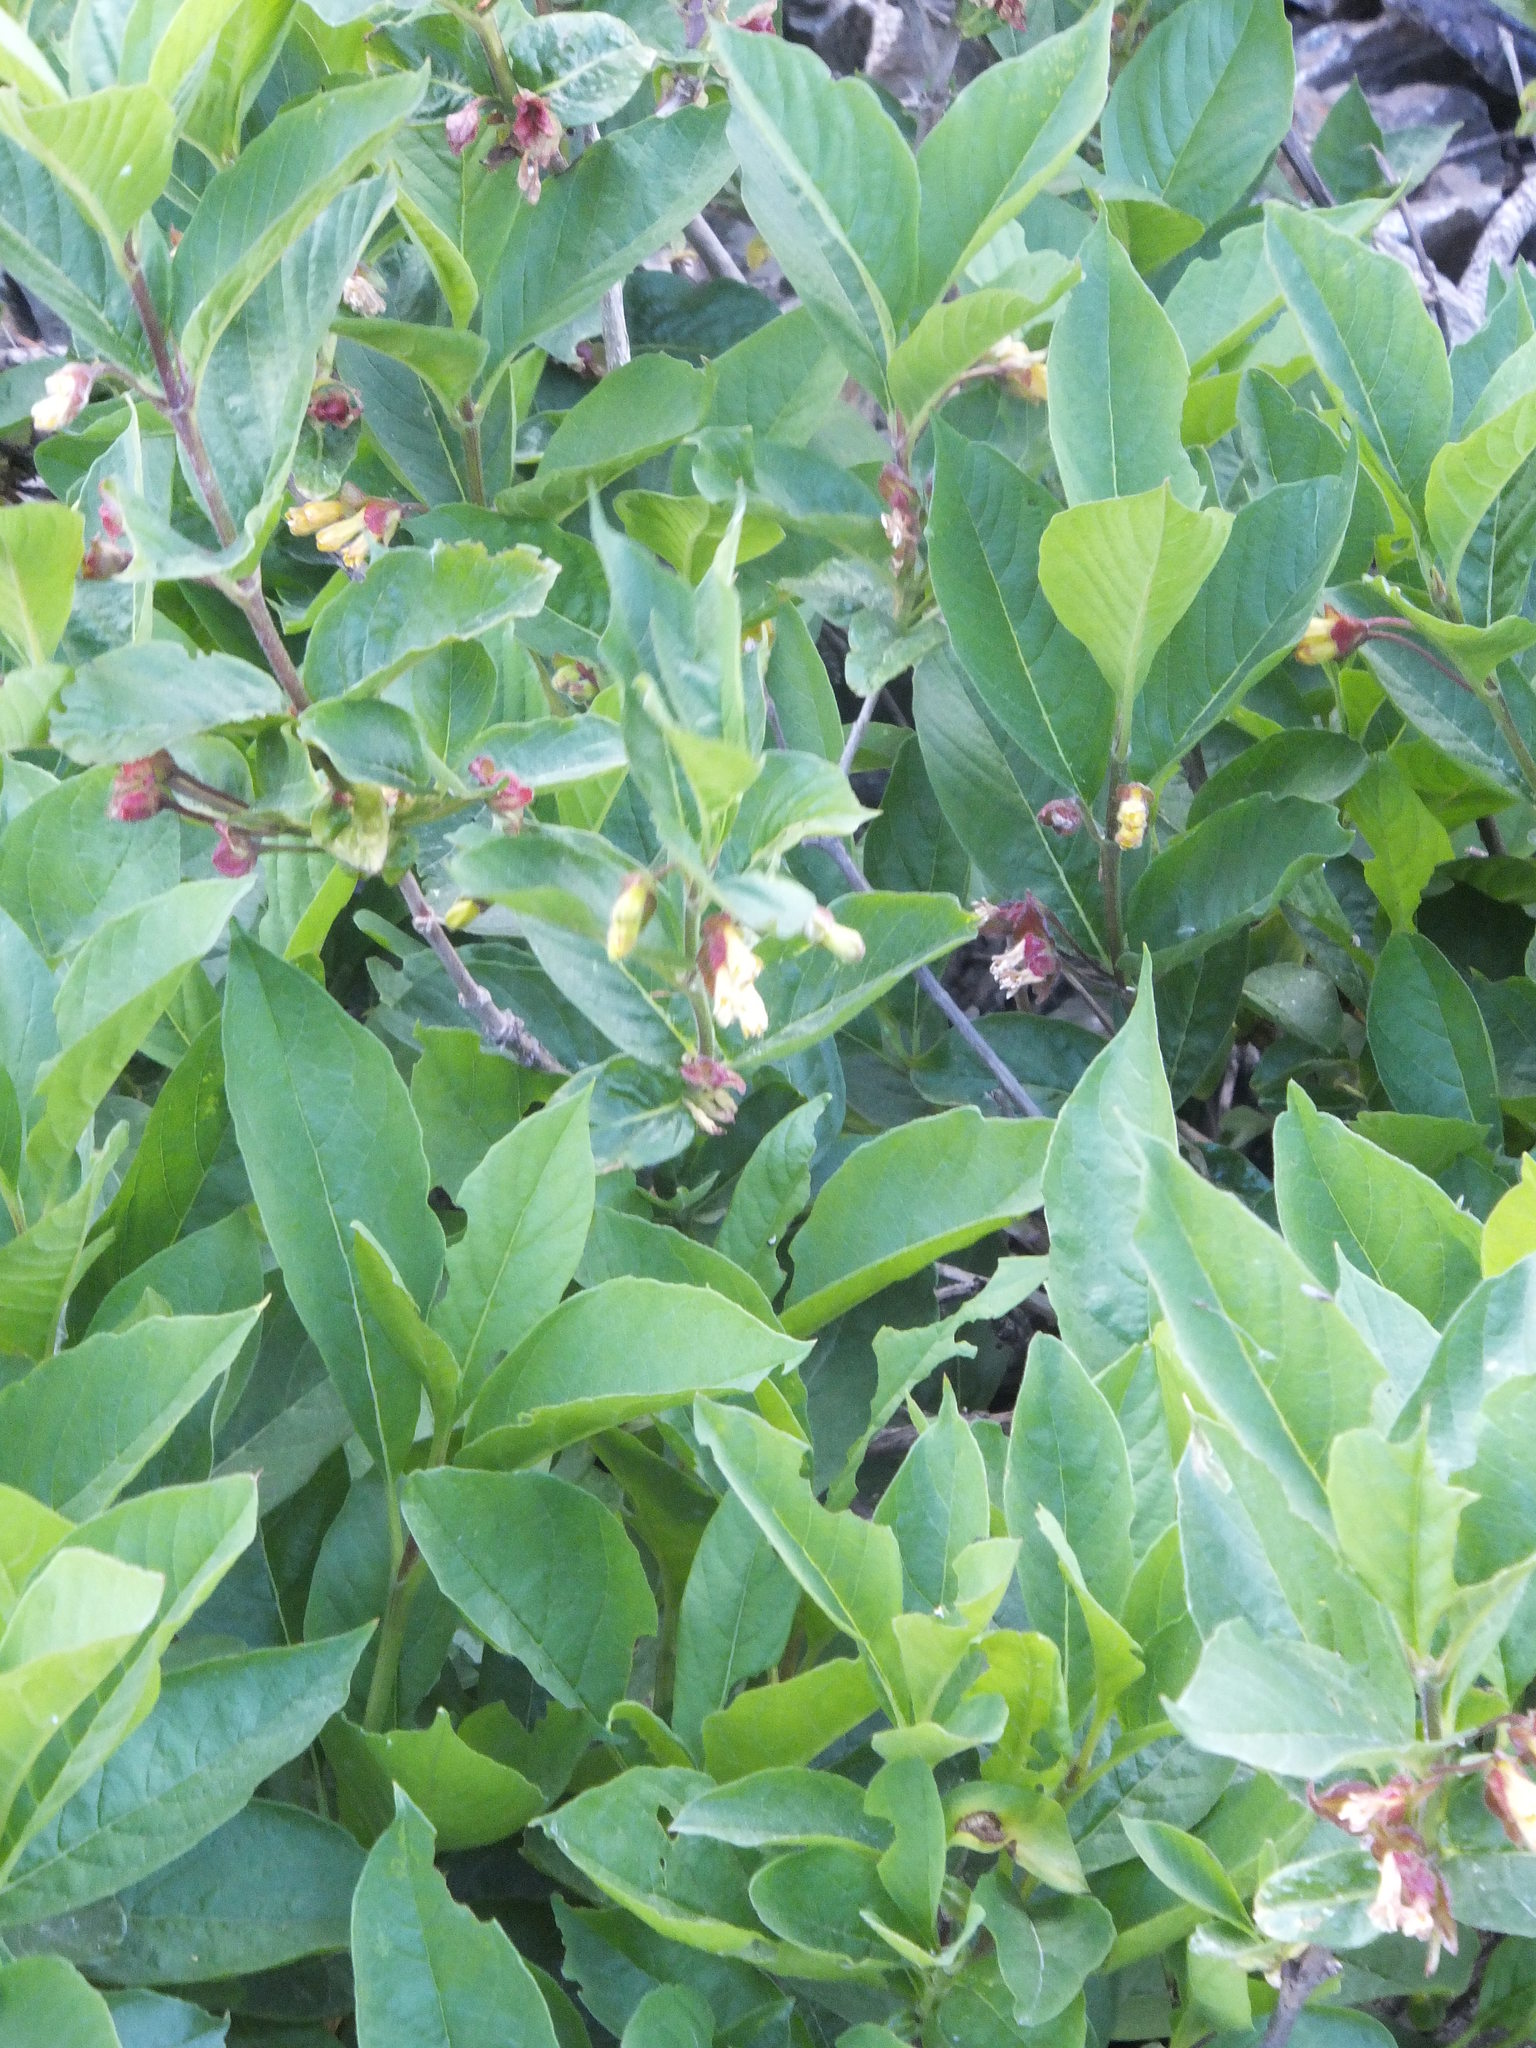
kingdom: Plantae
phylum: Tracheophyta
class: Magnoliopsida
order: Dipsacales
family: Caprifoliaceae
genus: Lonicera
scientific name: Lonicera involucrata
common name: Californian honeysuckle
